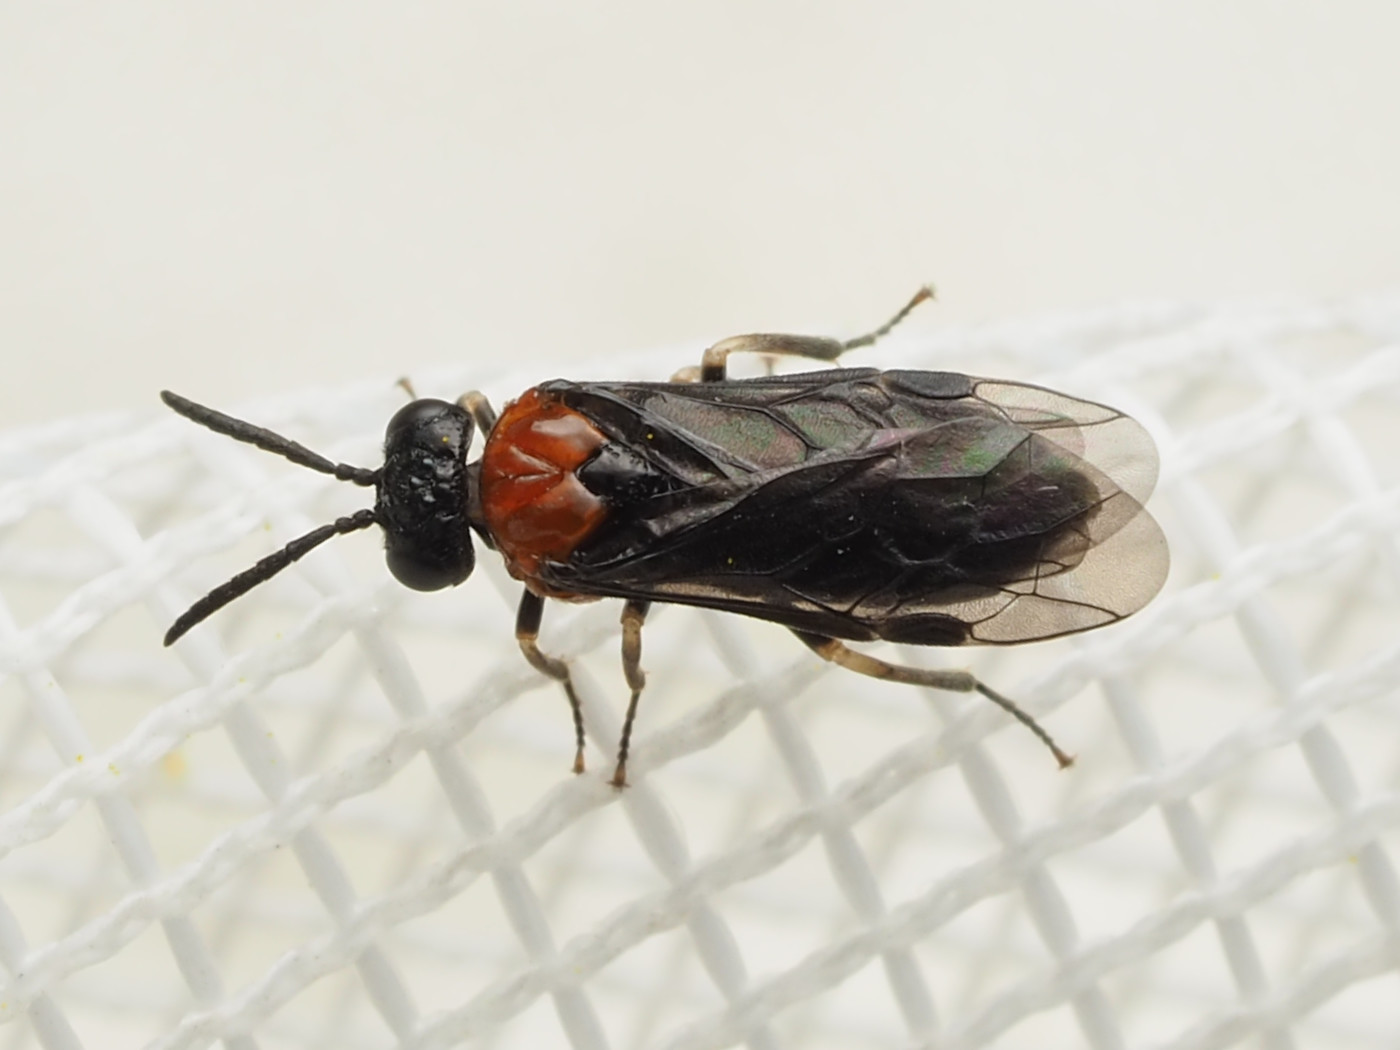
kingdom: Animalia
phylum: Arthropoda
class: Insecta
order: Hymenoptera
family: Tenthredinidae
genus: Eutomostethus
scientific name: Eutomostethus ephippium
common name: Tenthredid wasp
